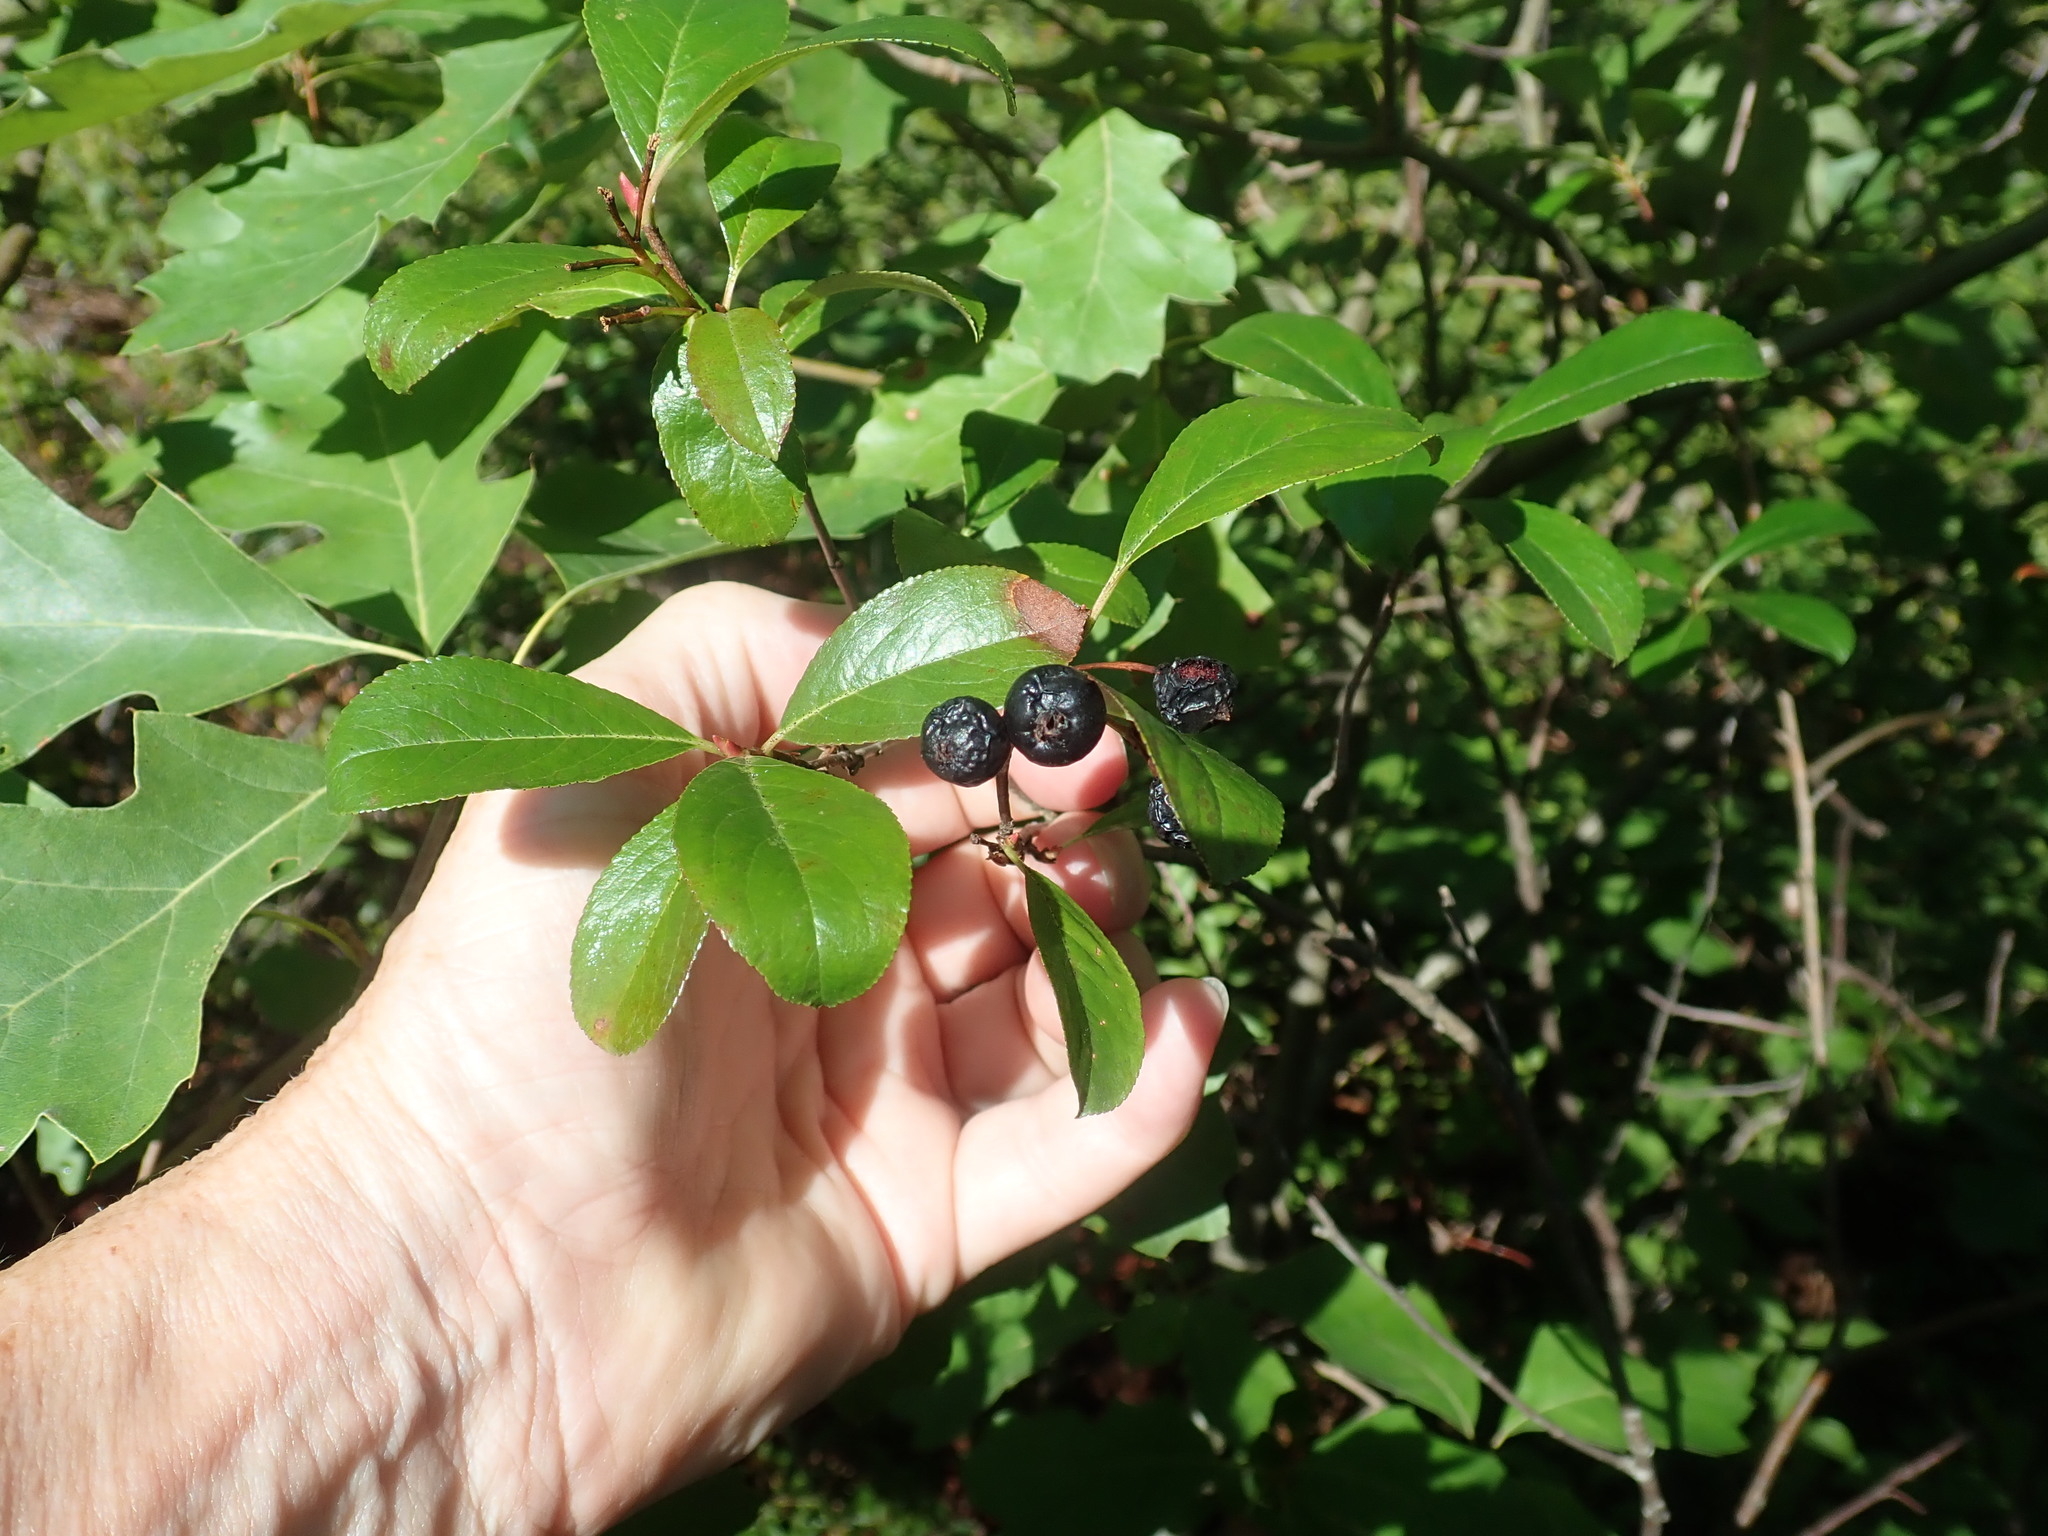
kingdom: Plantae
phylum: Tracheophyta
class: Magnoliopsida
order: Rosales
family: Rosaceae
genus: Aronia
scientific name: Aronia melanocarpa
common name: Black chokeberry
